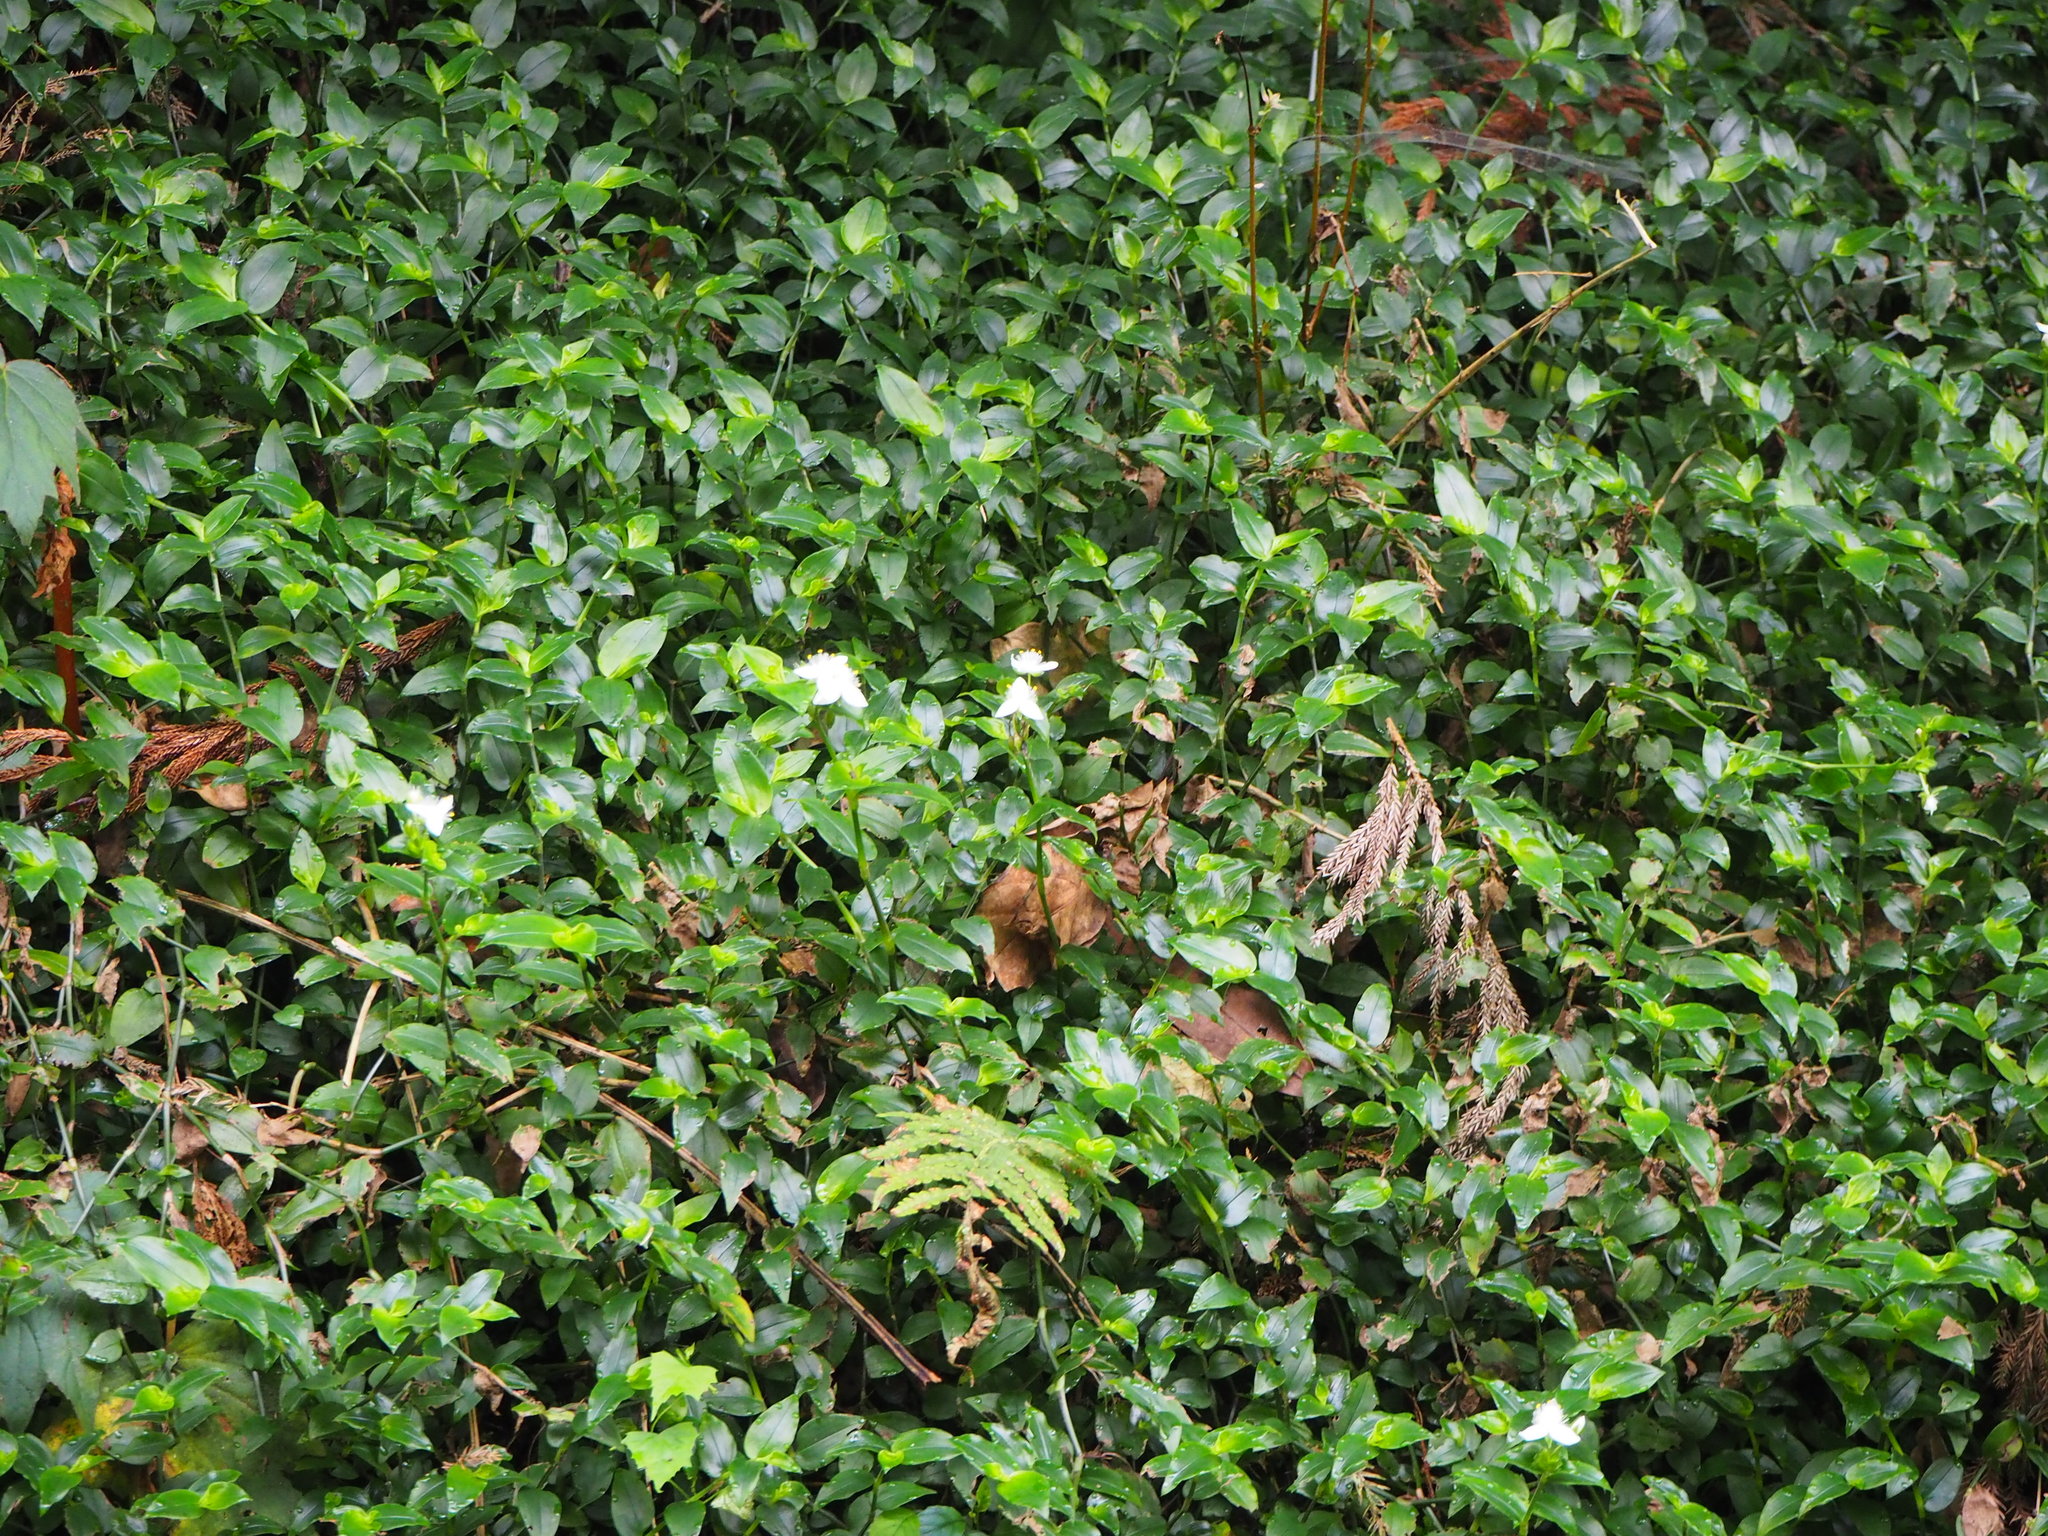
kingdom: Plantae
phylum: Tracheophyta
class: Liliopsida
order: Commelinales
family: Commelinaceae
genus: Tradescantia
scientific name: Tradescantia fluminensis
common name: Wandering-jew
